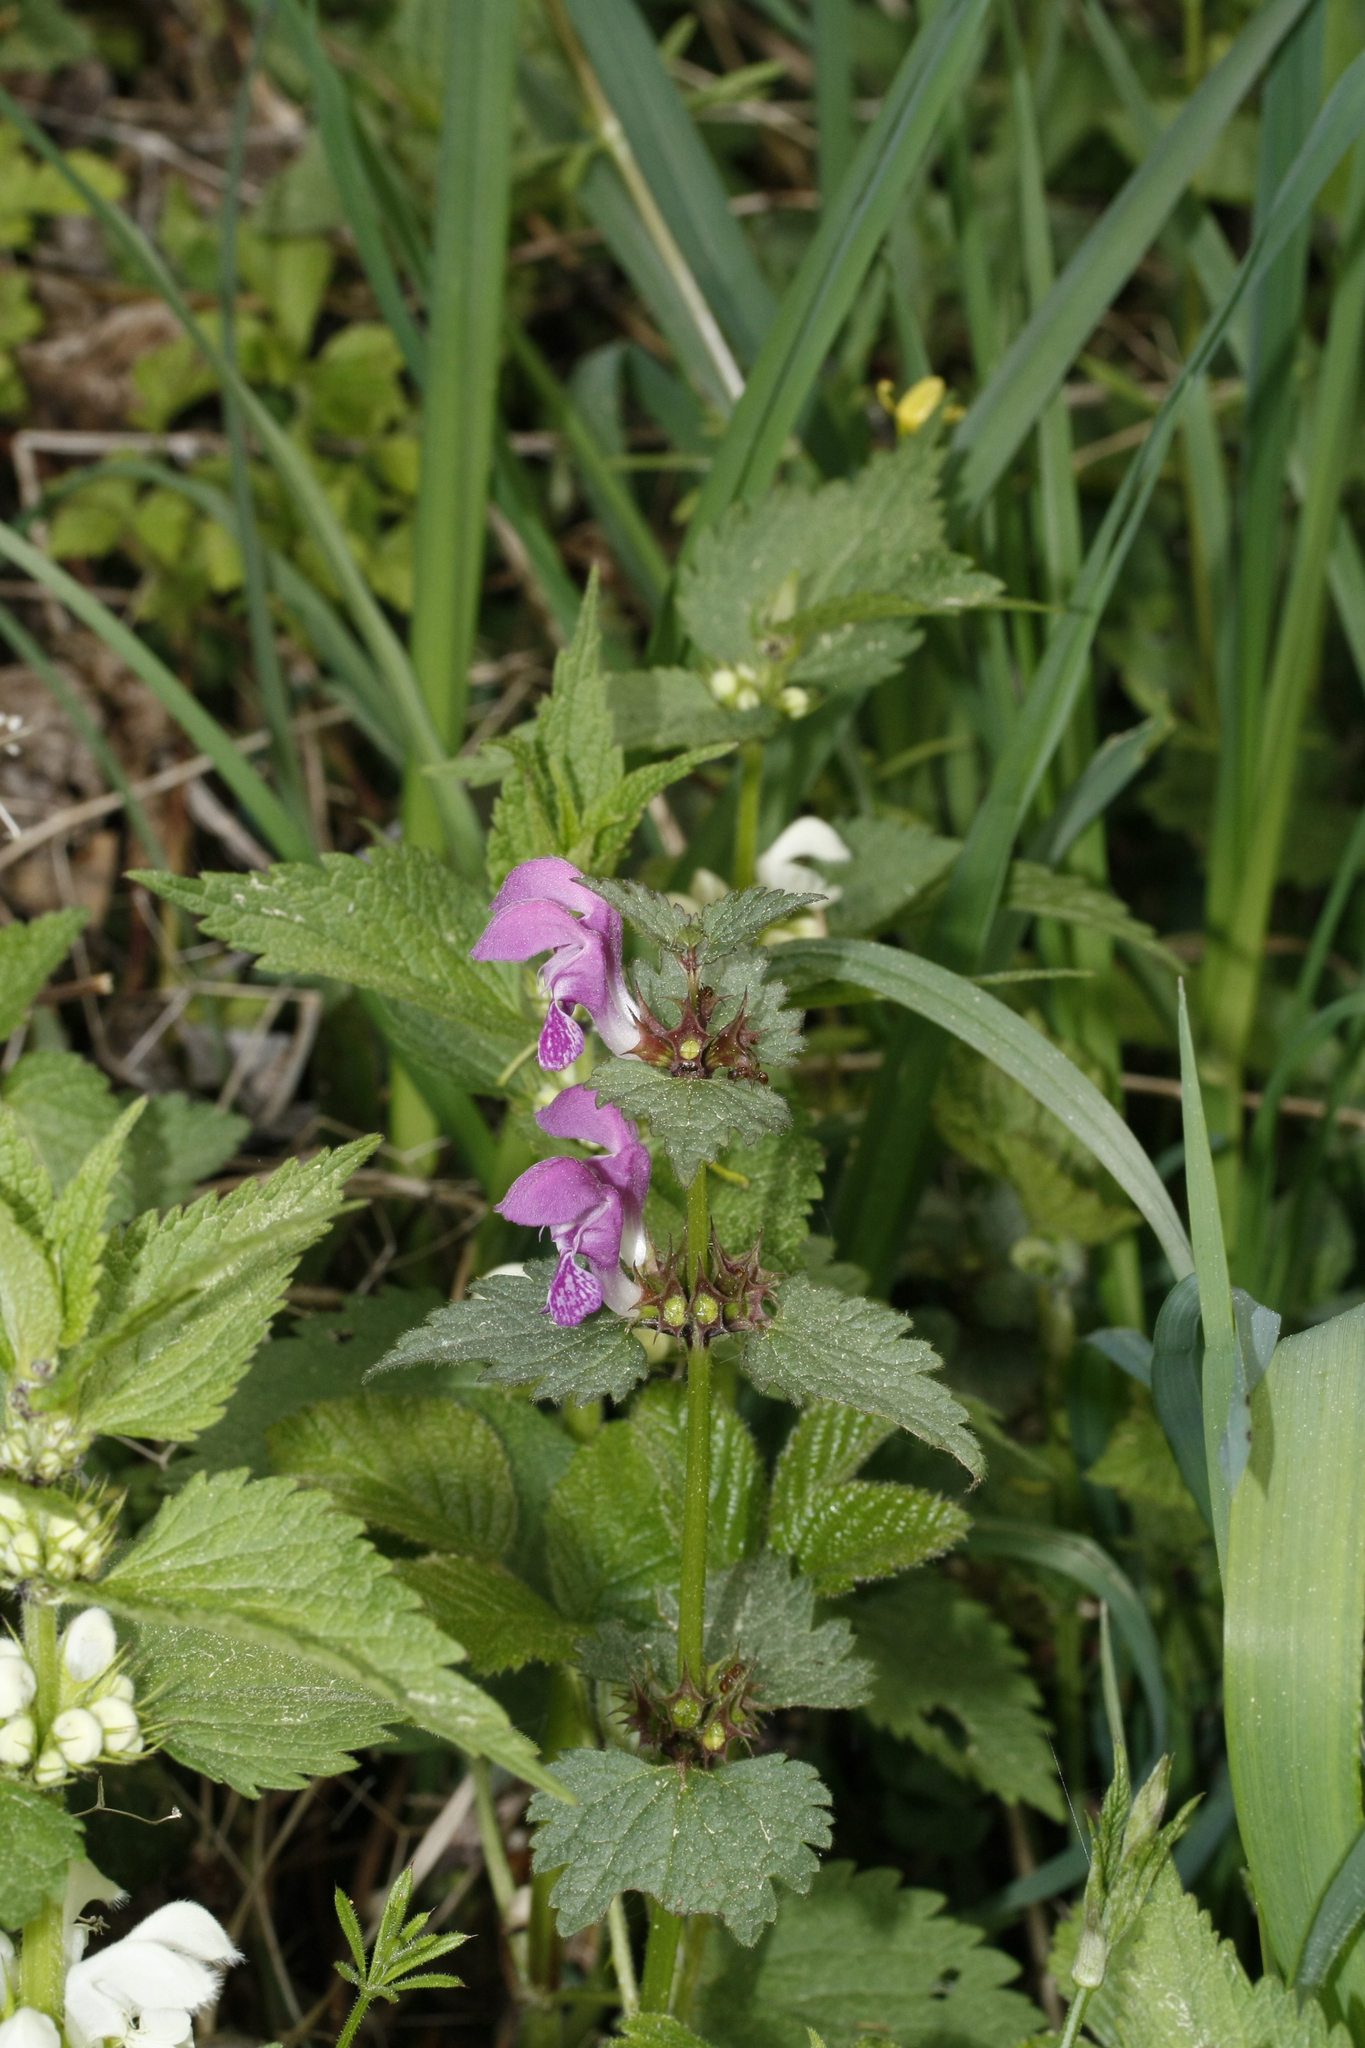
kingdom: Plantae
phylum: Tracheophyta
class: Magnoliopsida
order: Lamiales
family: Lamiaceae
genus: Lamium
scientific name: Lamium maculatum
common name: Spotted dead-nettle
